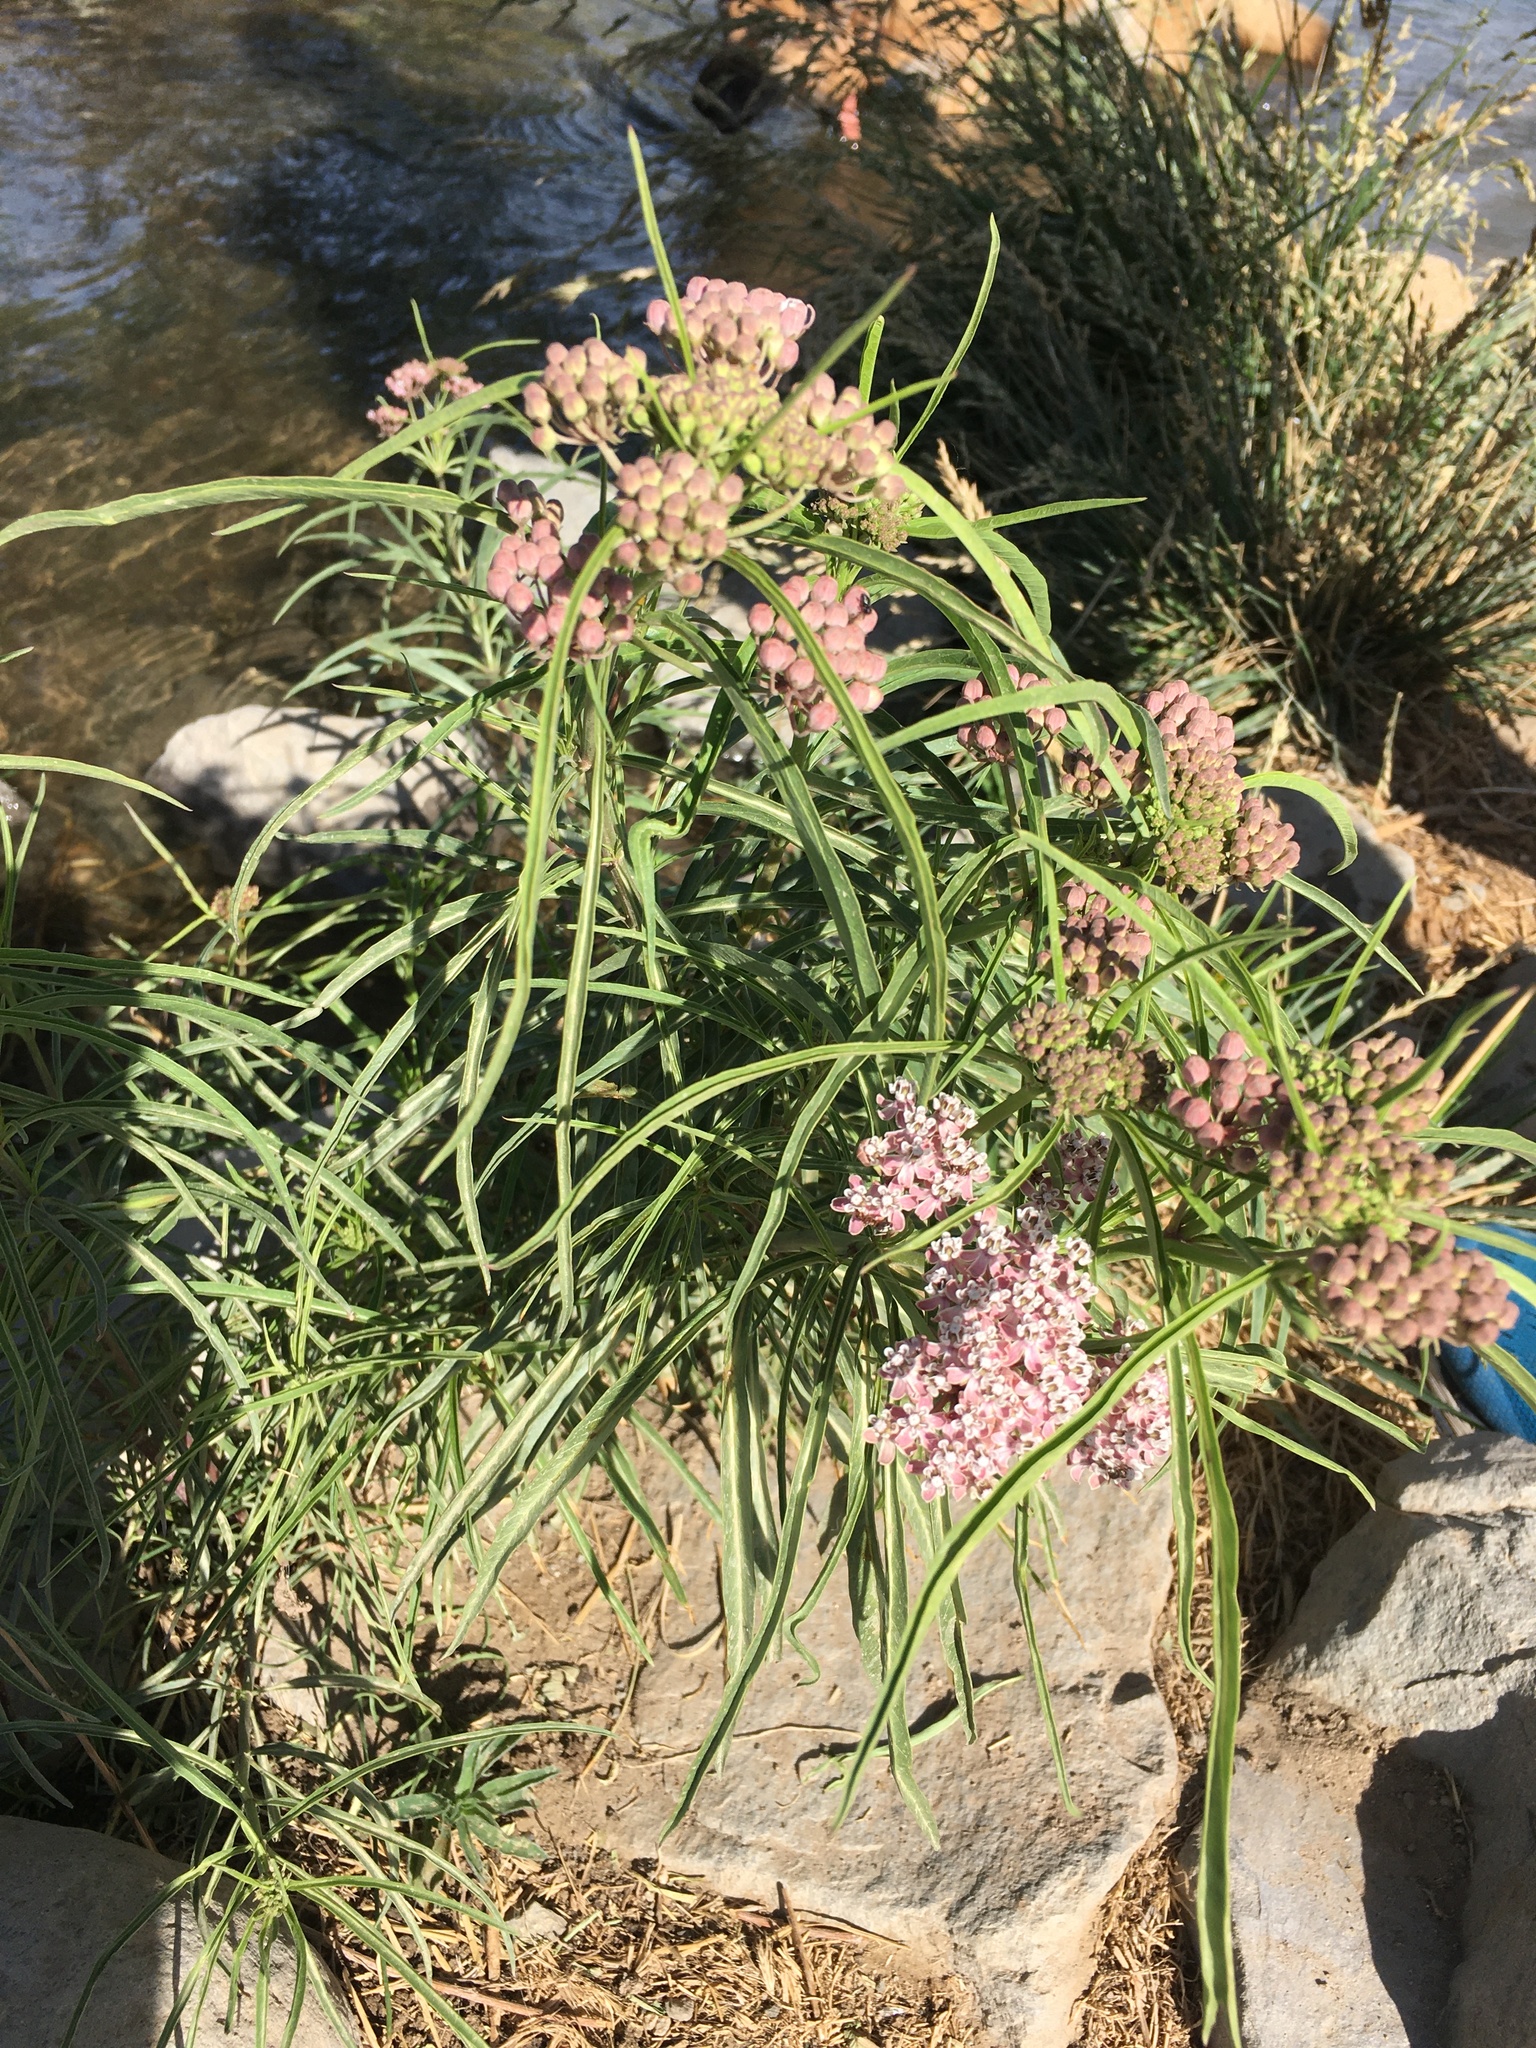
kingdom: Plantae
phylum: Tracheophyta
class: Magnoliopsida
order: Gentianales
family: Apocynaceae
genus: Asclepias
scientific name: Asclepias fascicularis
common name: Mexican milkweed
